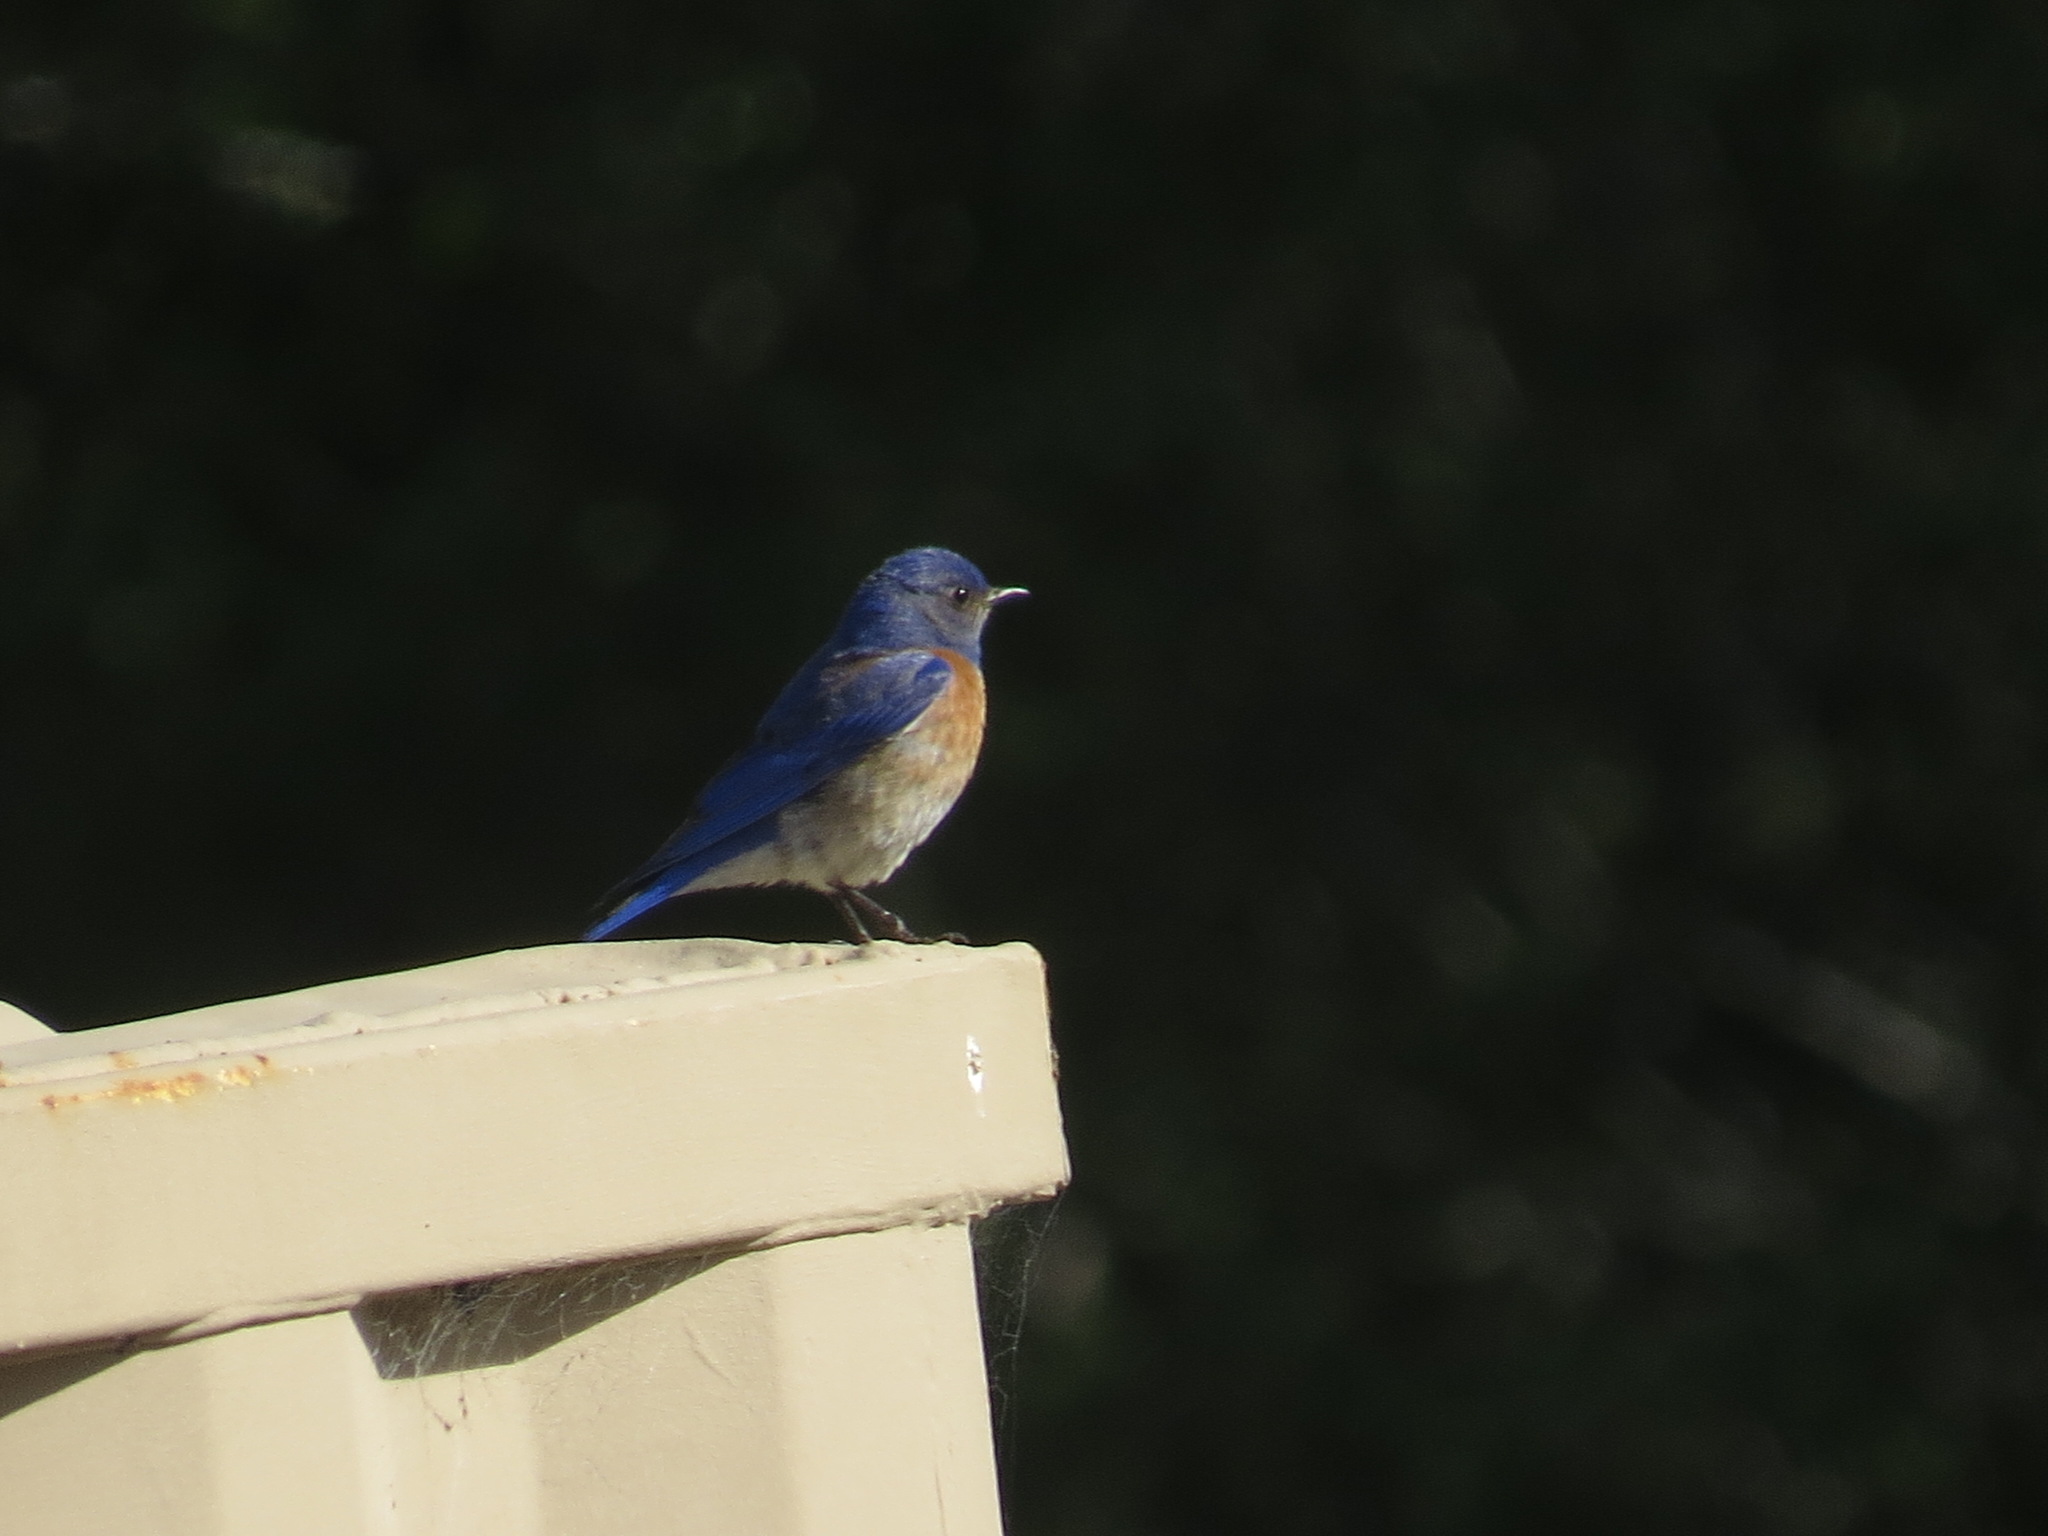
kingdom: Animalia
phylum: Chordata
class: Aves
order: Passeriformes
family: Turdidae
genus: Sialia
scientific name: Sialia mexicana
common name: Western bluebird
